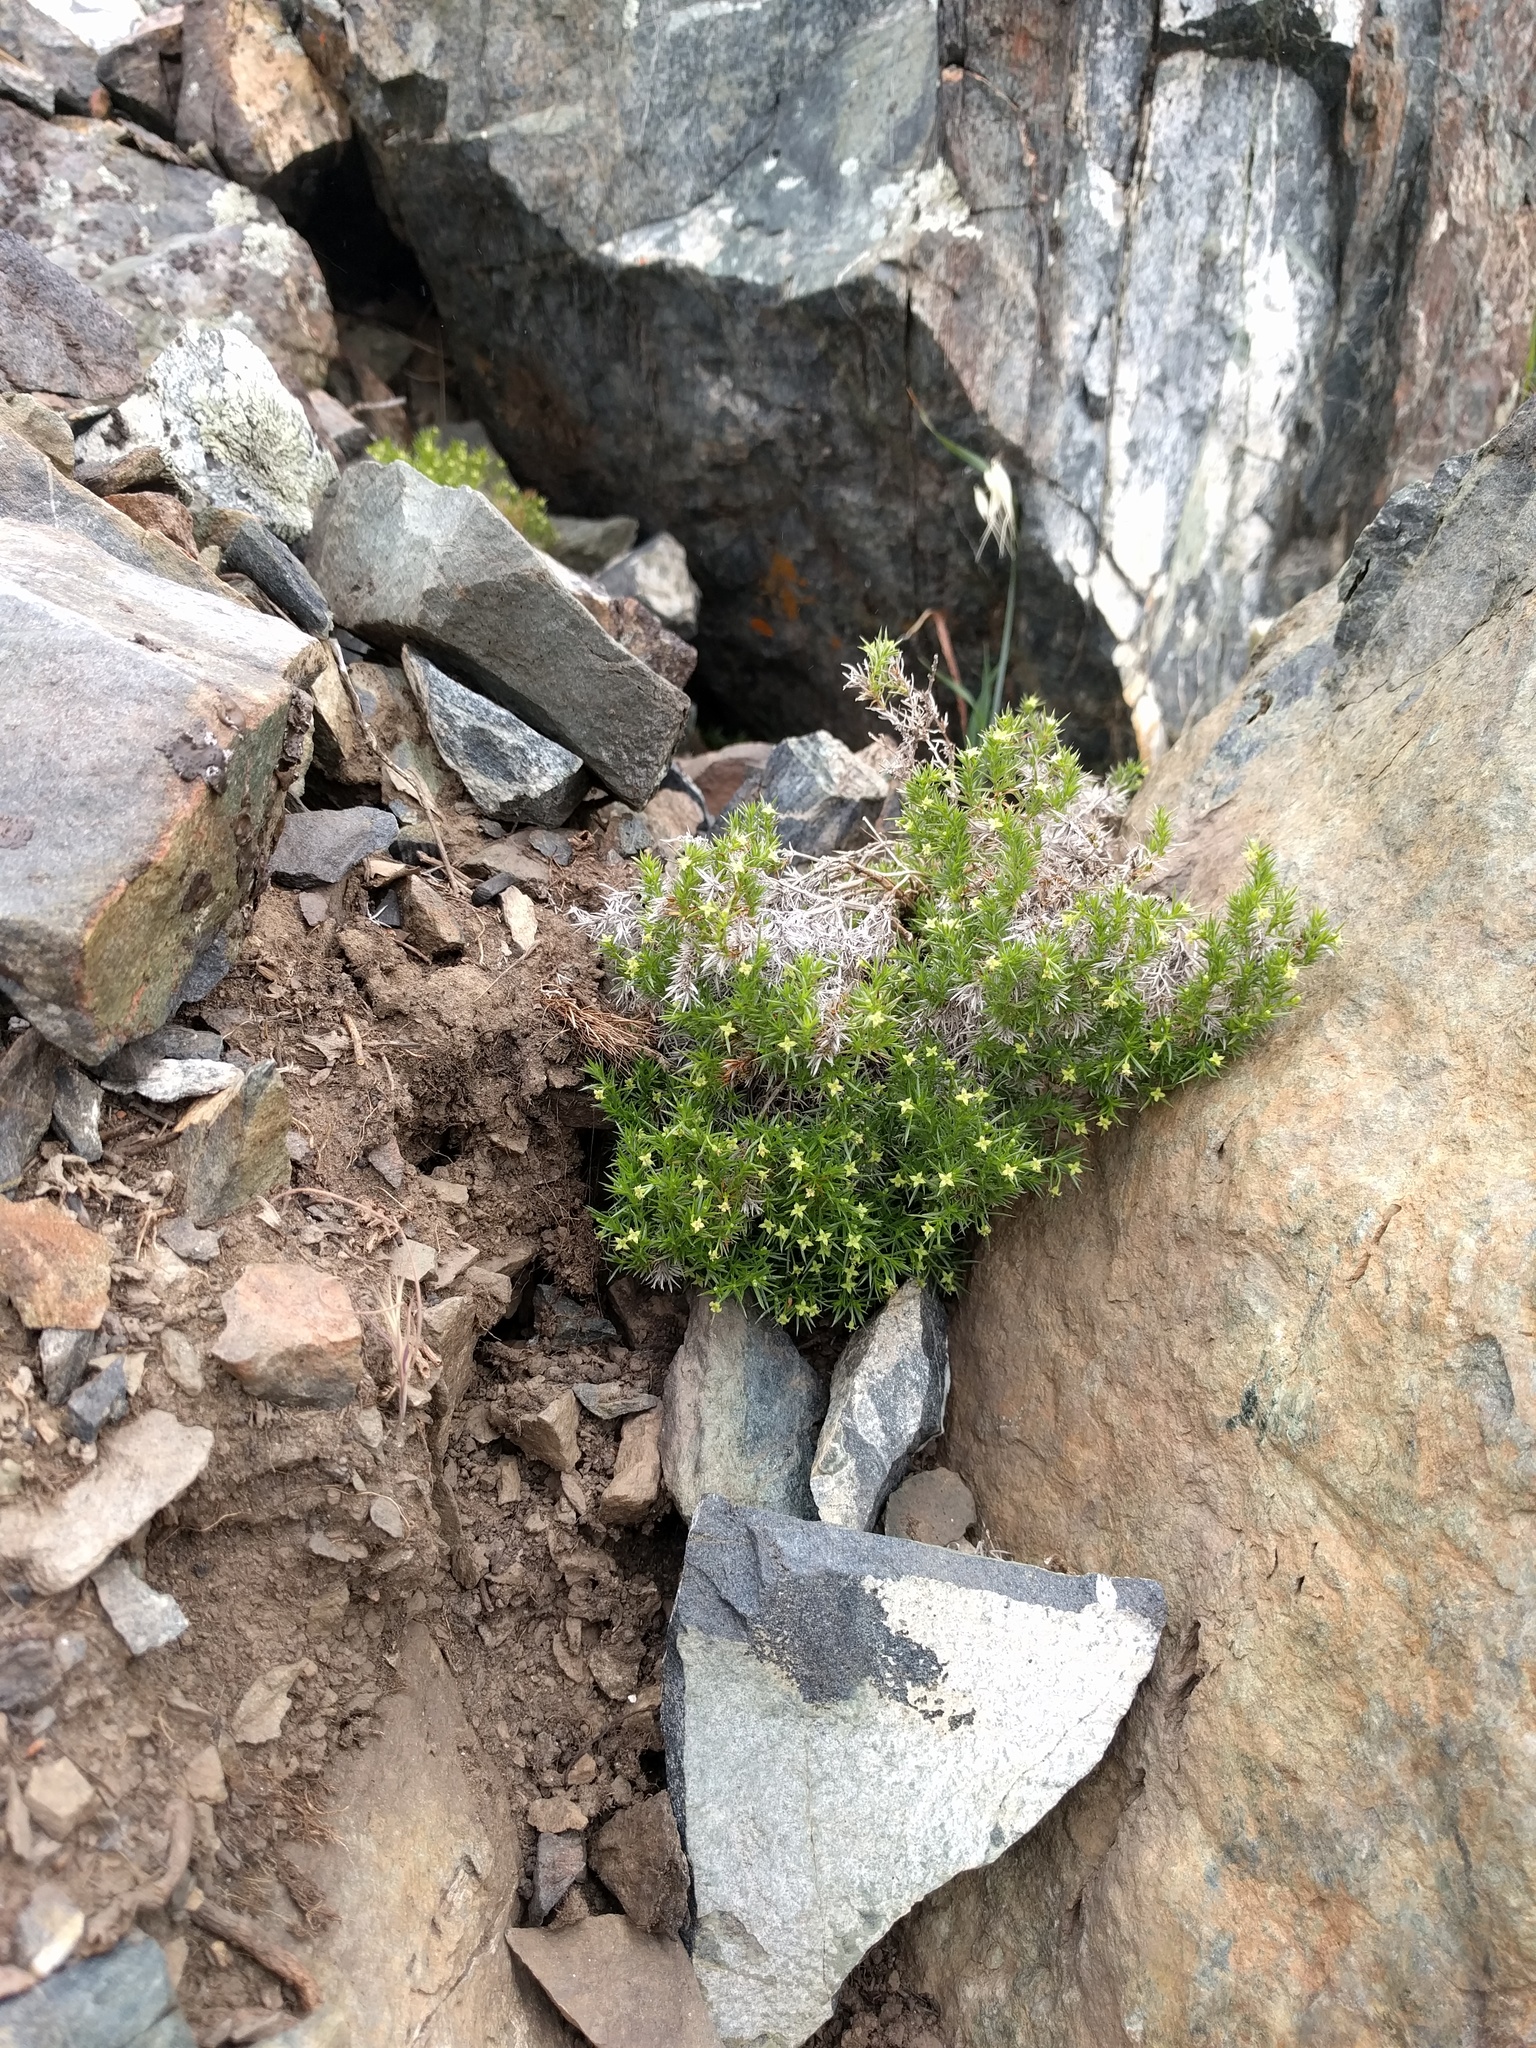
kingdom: Plantae
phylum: Tracheophyta
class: Magnoliopsida
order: Gentianales
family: Rubiaceae
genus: Galium
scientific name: Galium andrewsii
